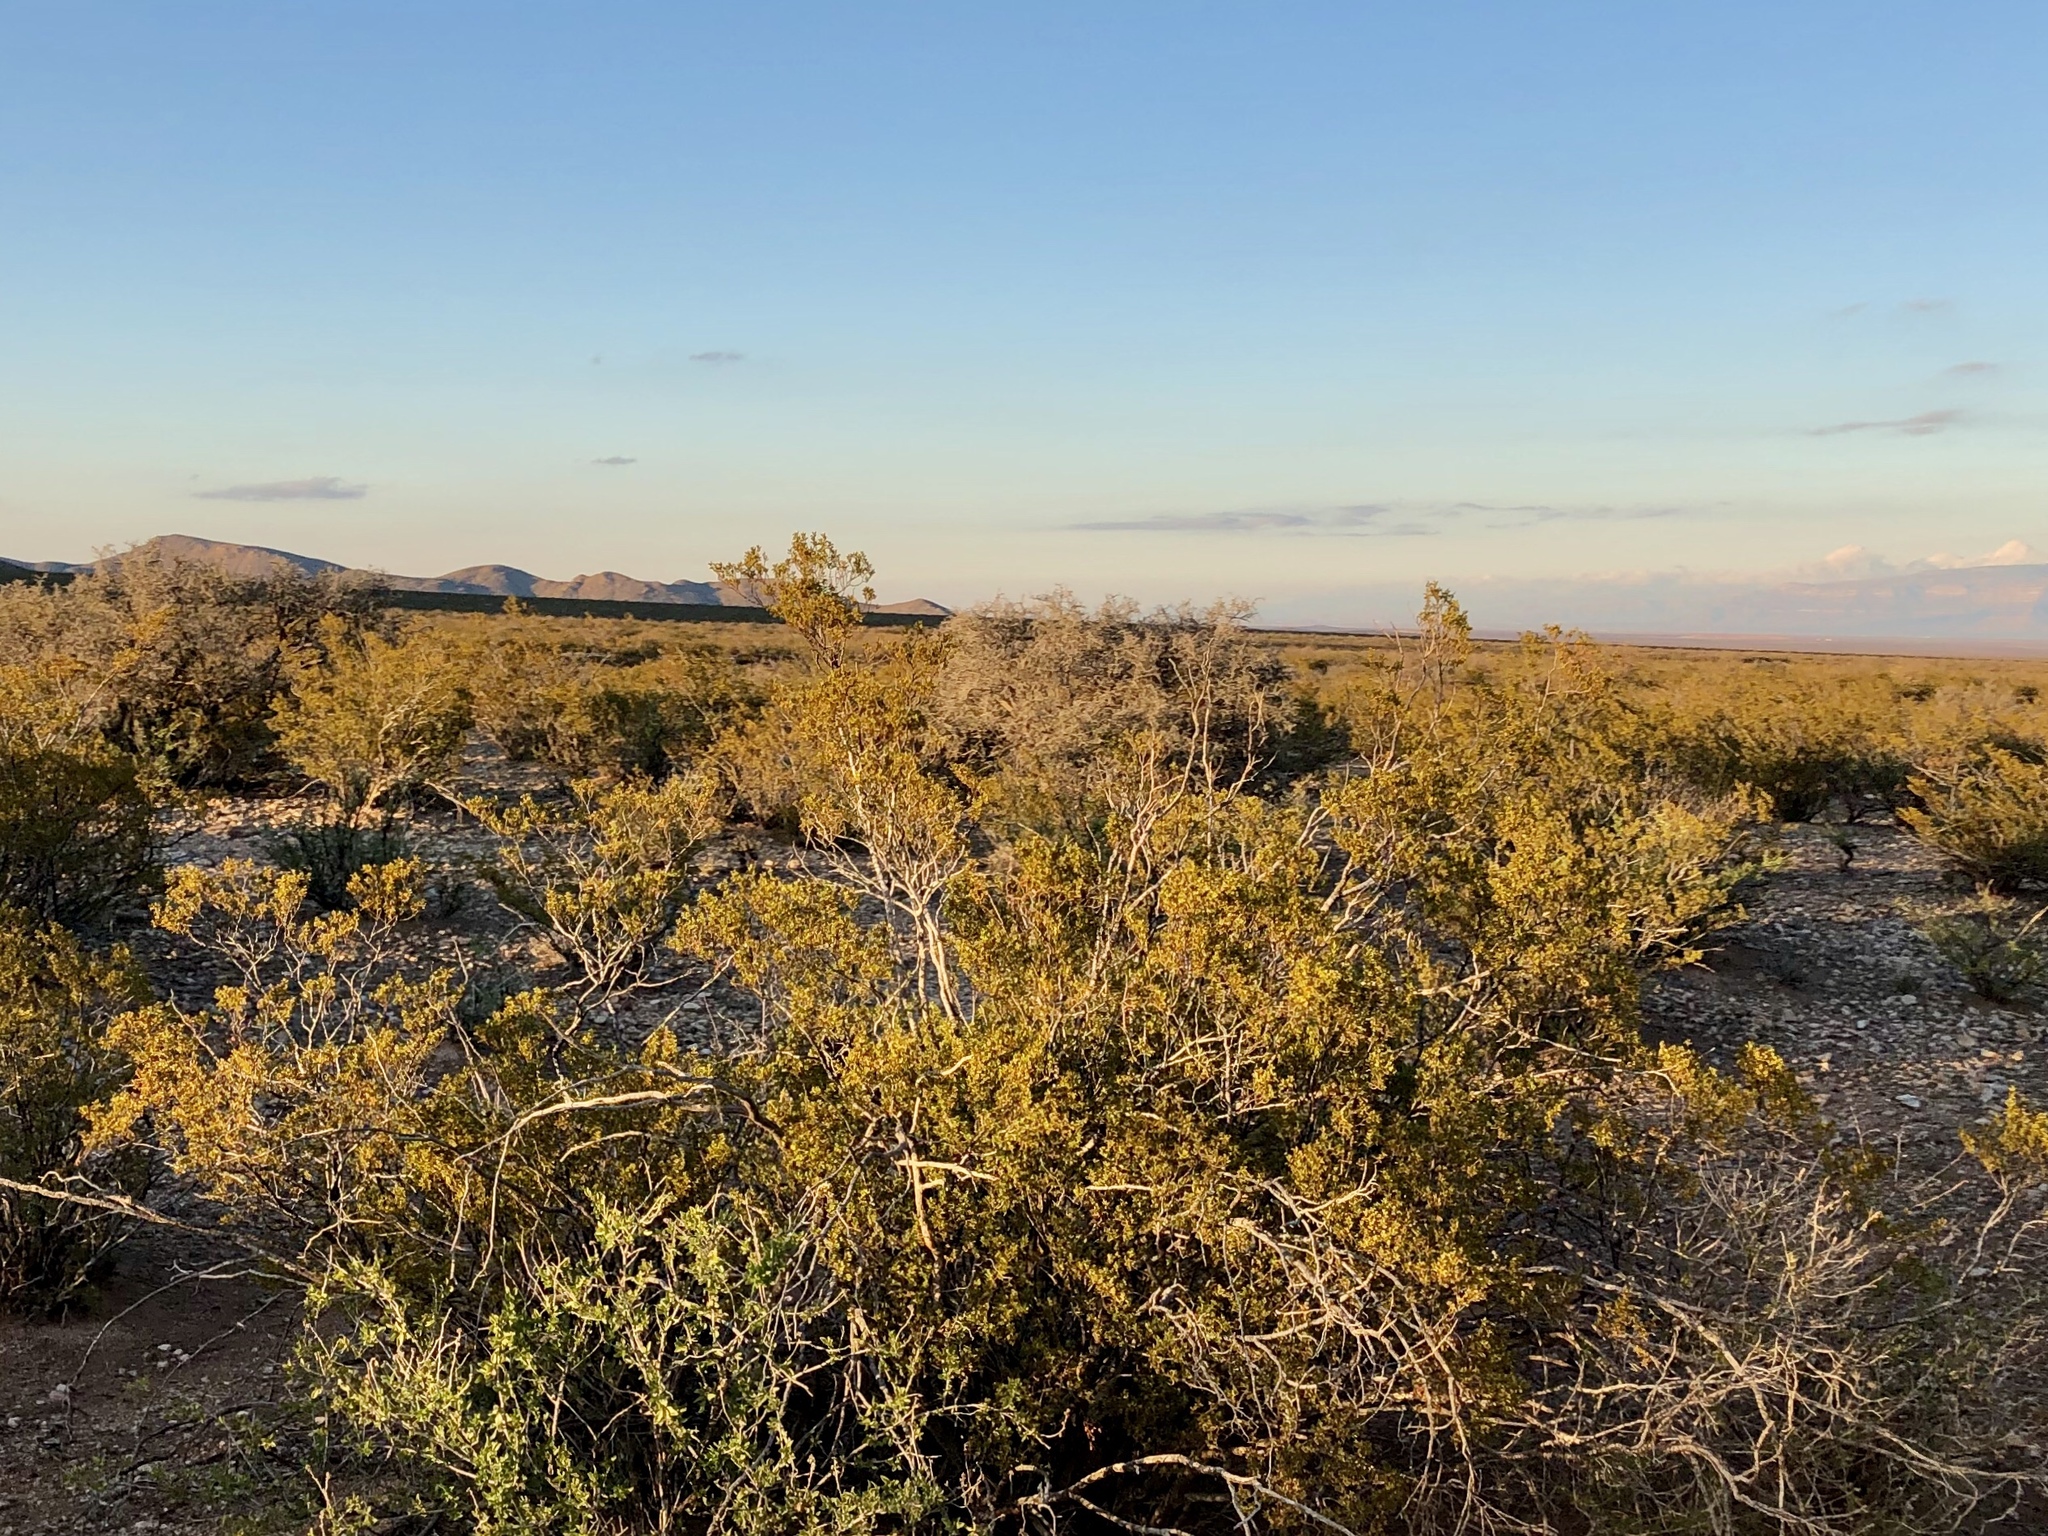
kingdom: Plantae
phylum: Tracheophyta
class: Magnoliopsida
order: Zygophyllales
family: Zygophyllaceae
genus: Larrea
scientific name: Larrea tridentata
